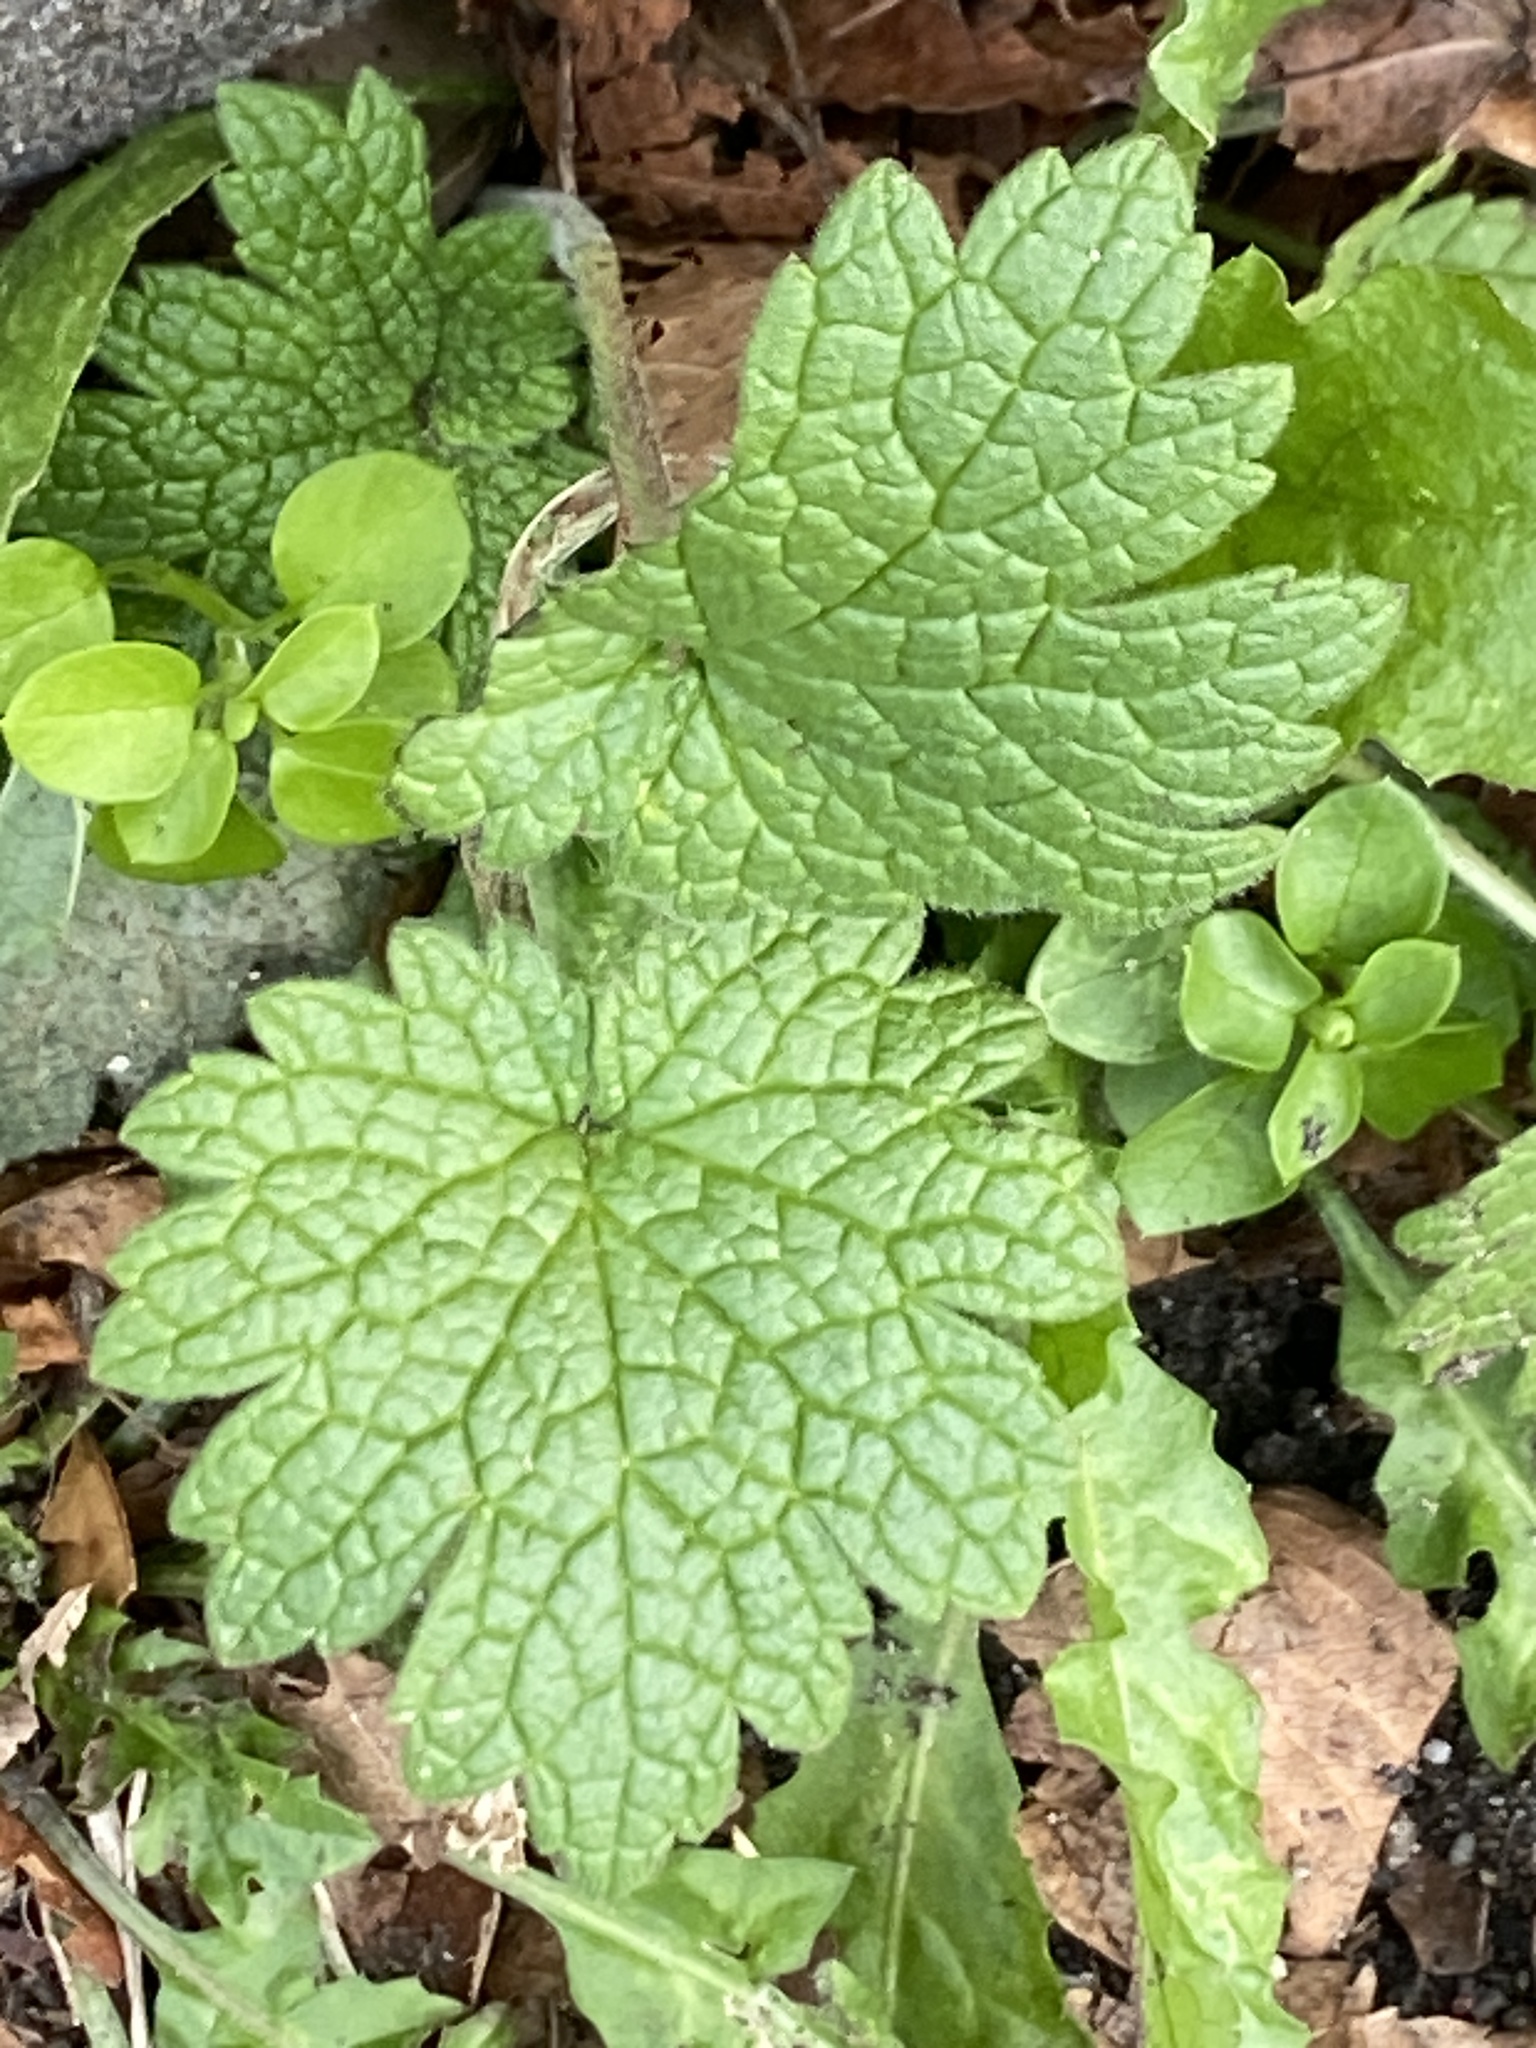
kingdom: Plantae
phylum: Tracheophyta
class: Magnoliopsida
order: Lamiales
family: Lamiaceae
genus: Leonurus
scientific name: Leonurus cardiaca
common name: Motherwort
